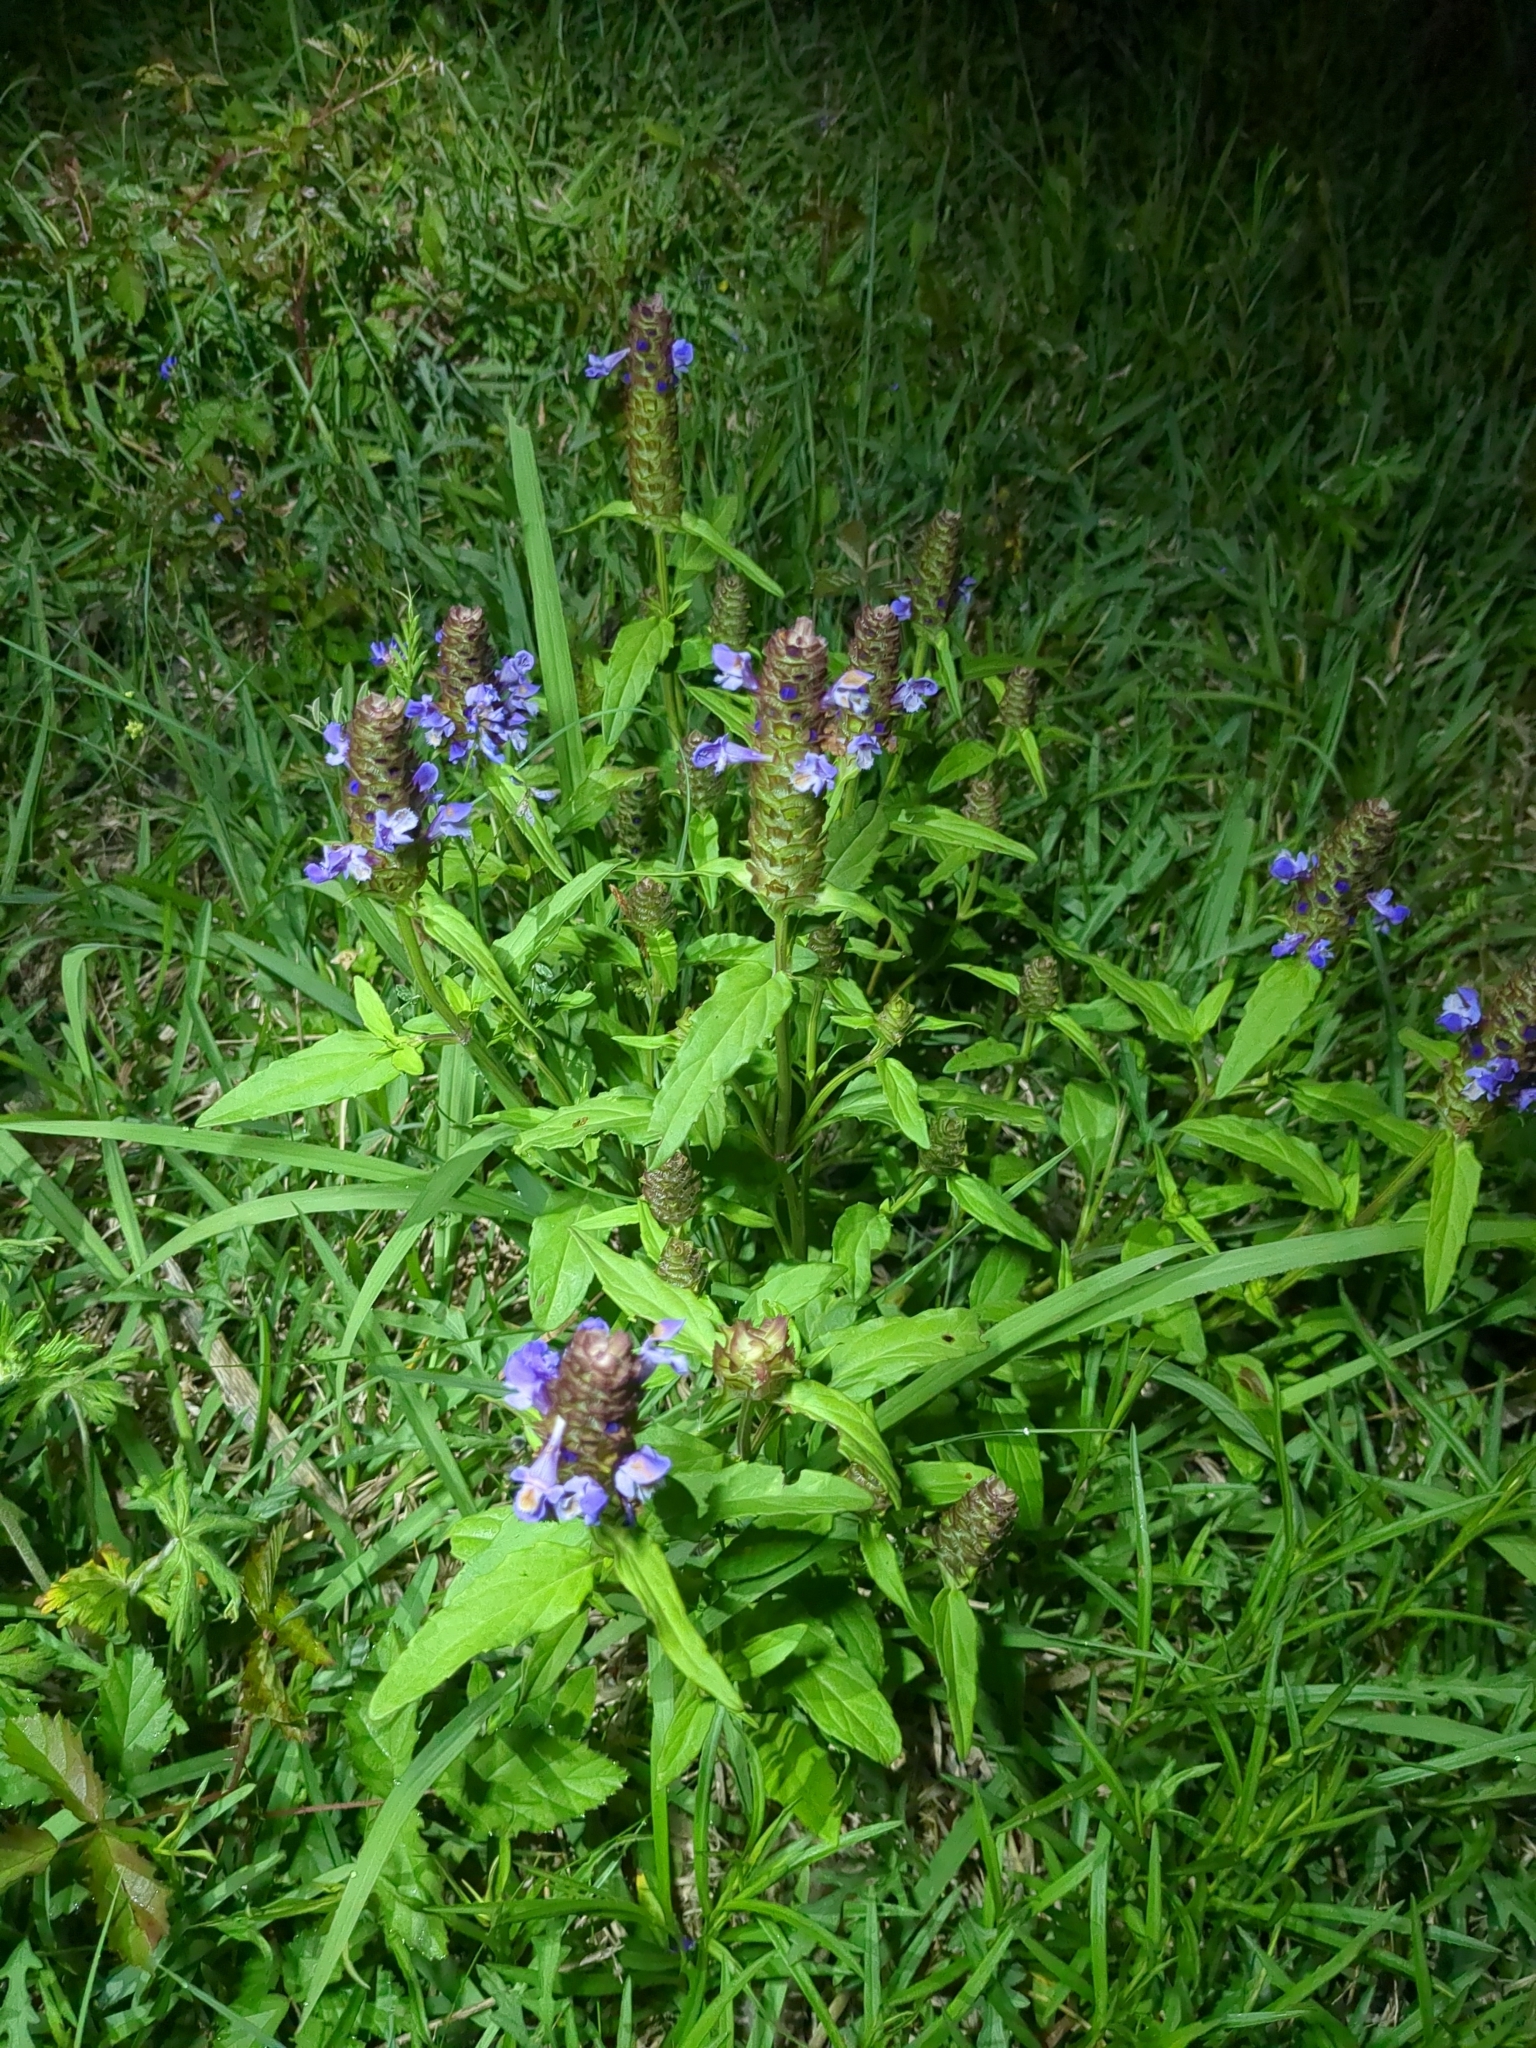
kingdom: Plantae
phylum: Tracheophyta
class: Magnoliopsida
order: Lamiales
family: Lamiaceae
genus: Prunella
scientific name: Prunella vulgaris
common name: Heal-all
